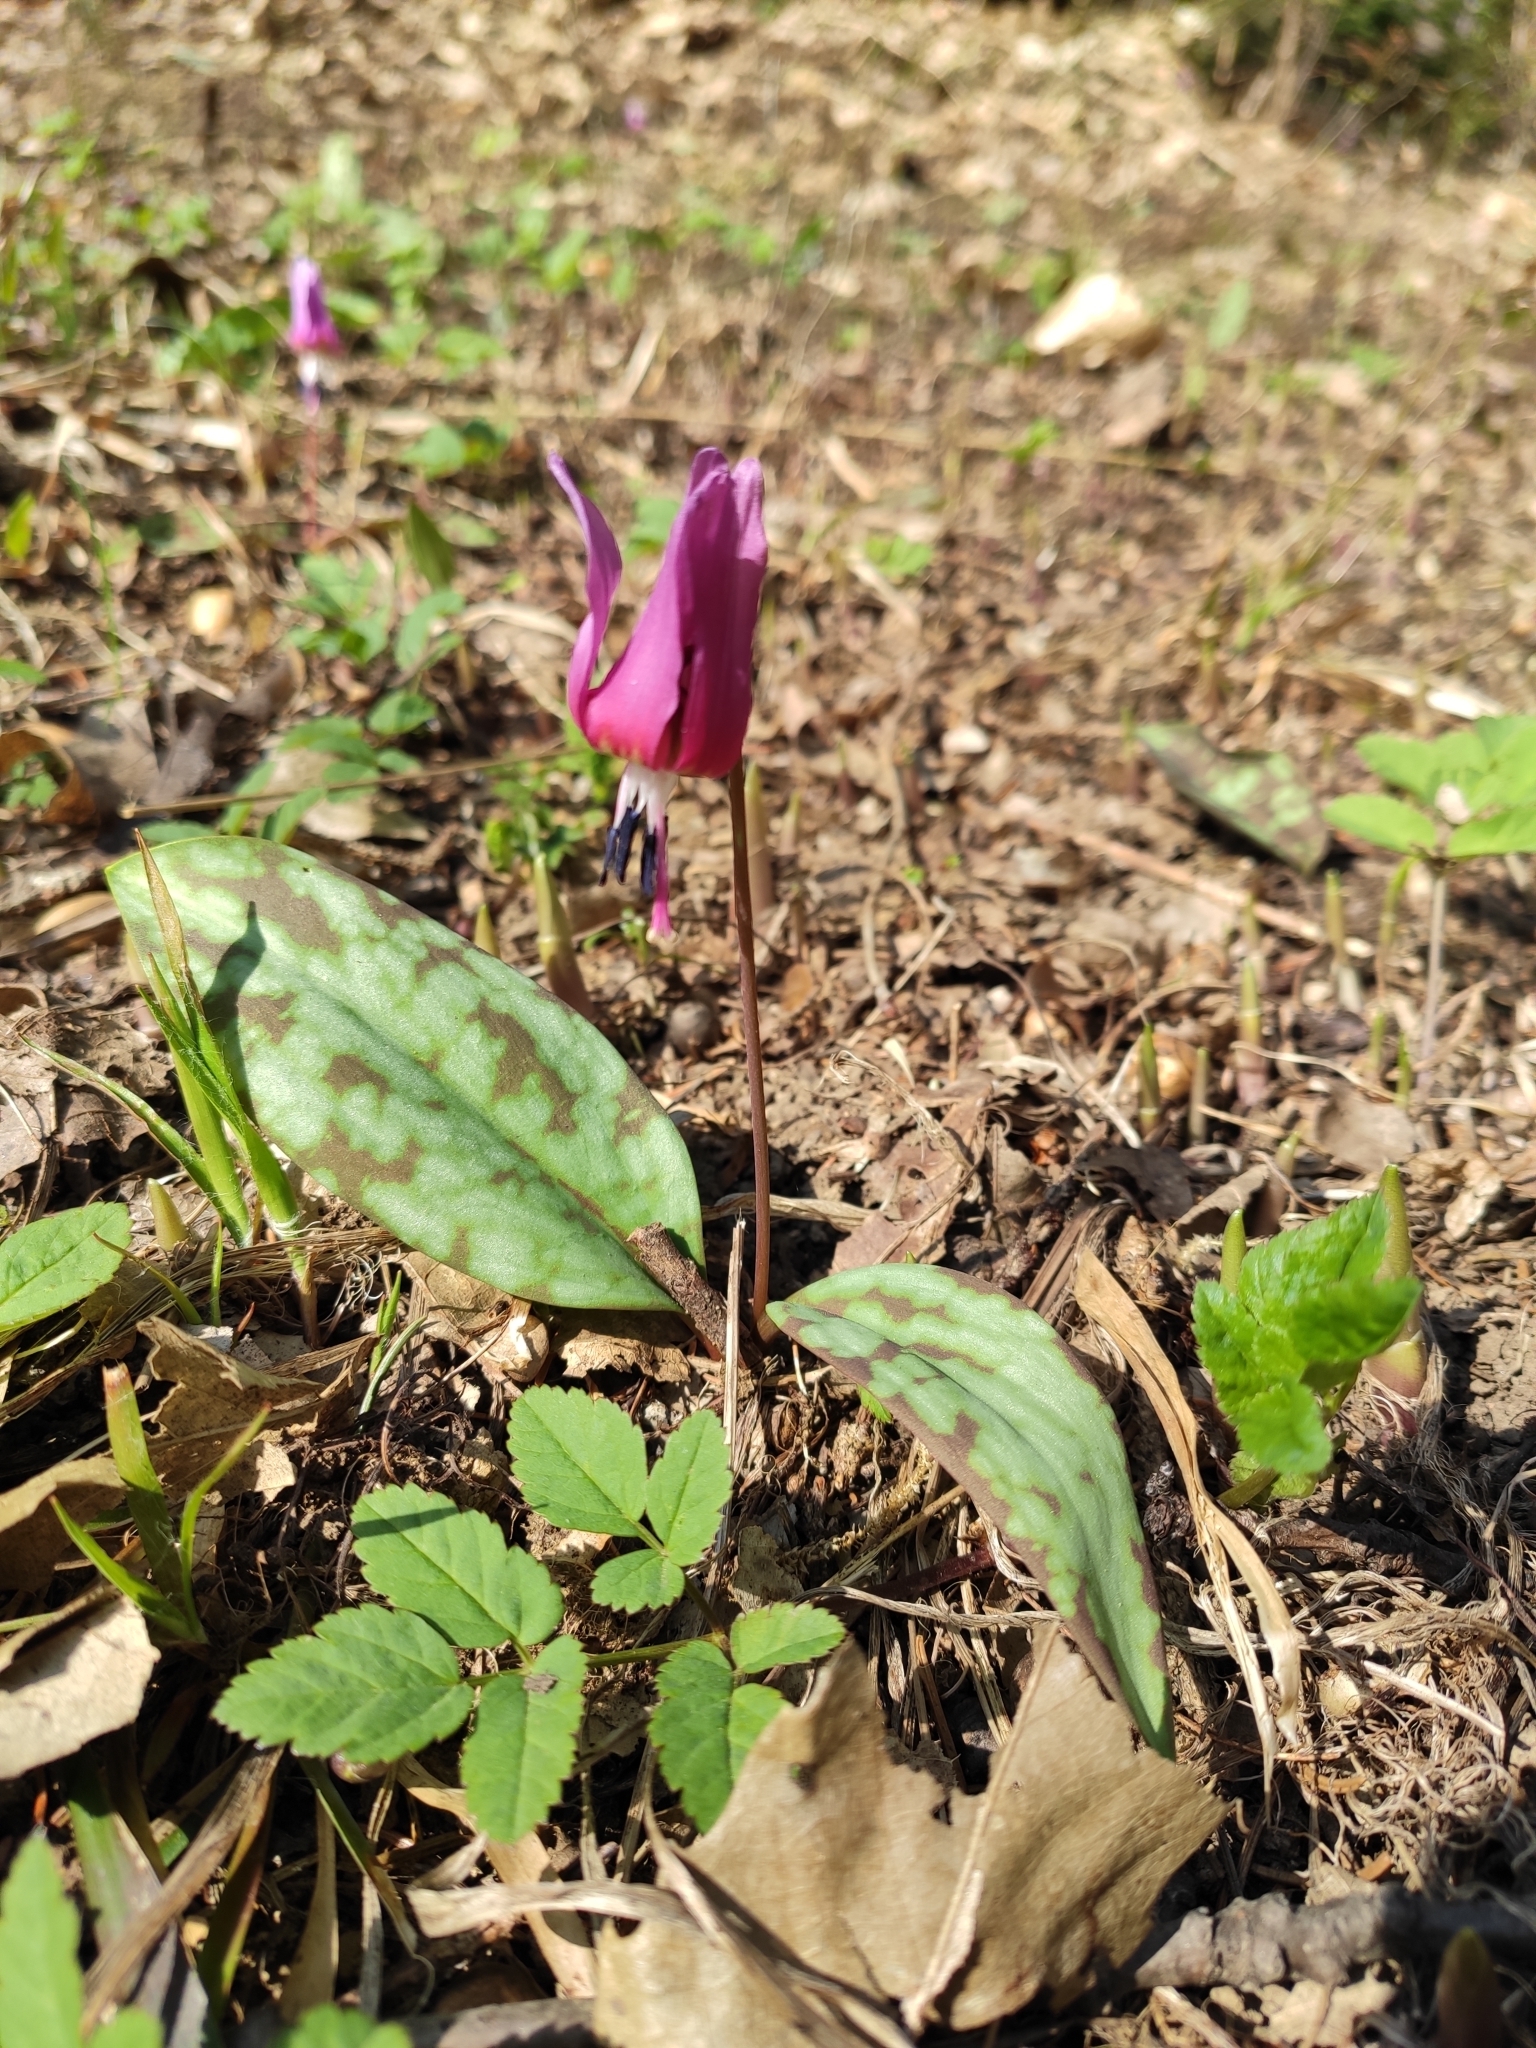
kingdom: Plantae
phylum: Tracheophyta
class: Liliopsida
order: Liliales
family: Liliaceae
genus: Erythronium
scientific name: Erythronium dens-canis
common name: Dog's-tooth-violet
